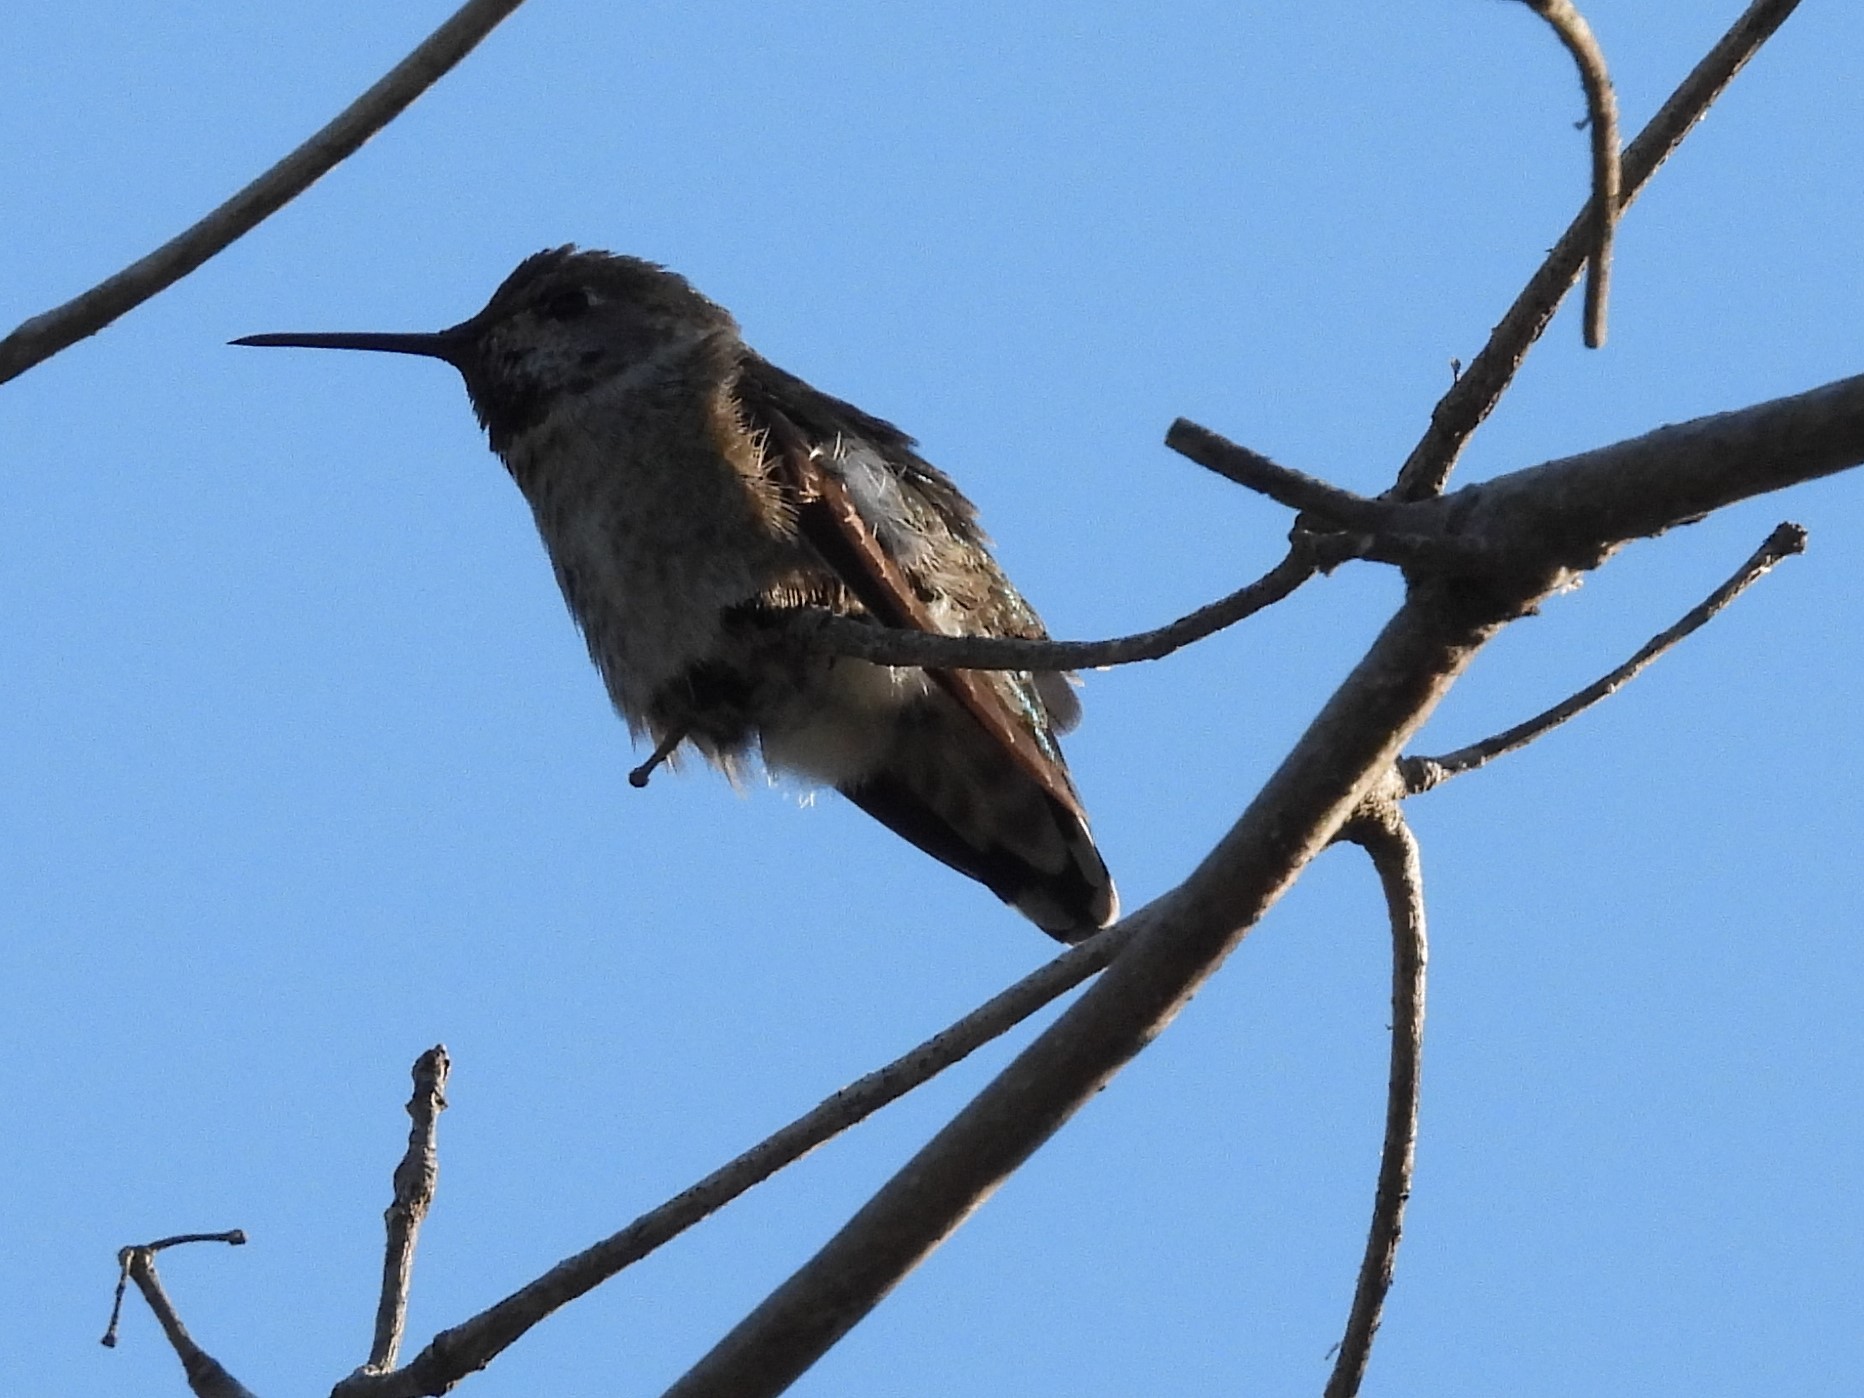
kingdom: Animalia
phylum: Chordata
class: Aves
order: Apodiformes
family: Trochilidae
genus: Calypte
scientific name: Calypte anna
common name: Anna's hummingbird
